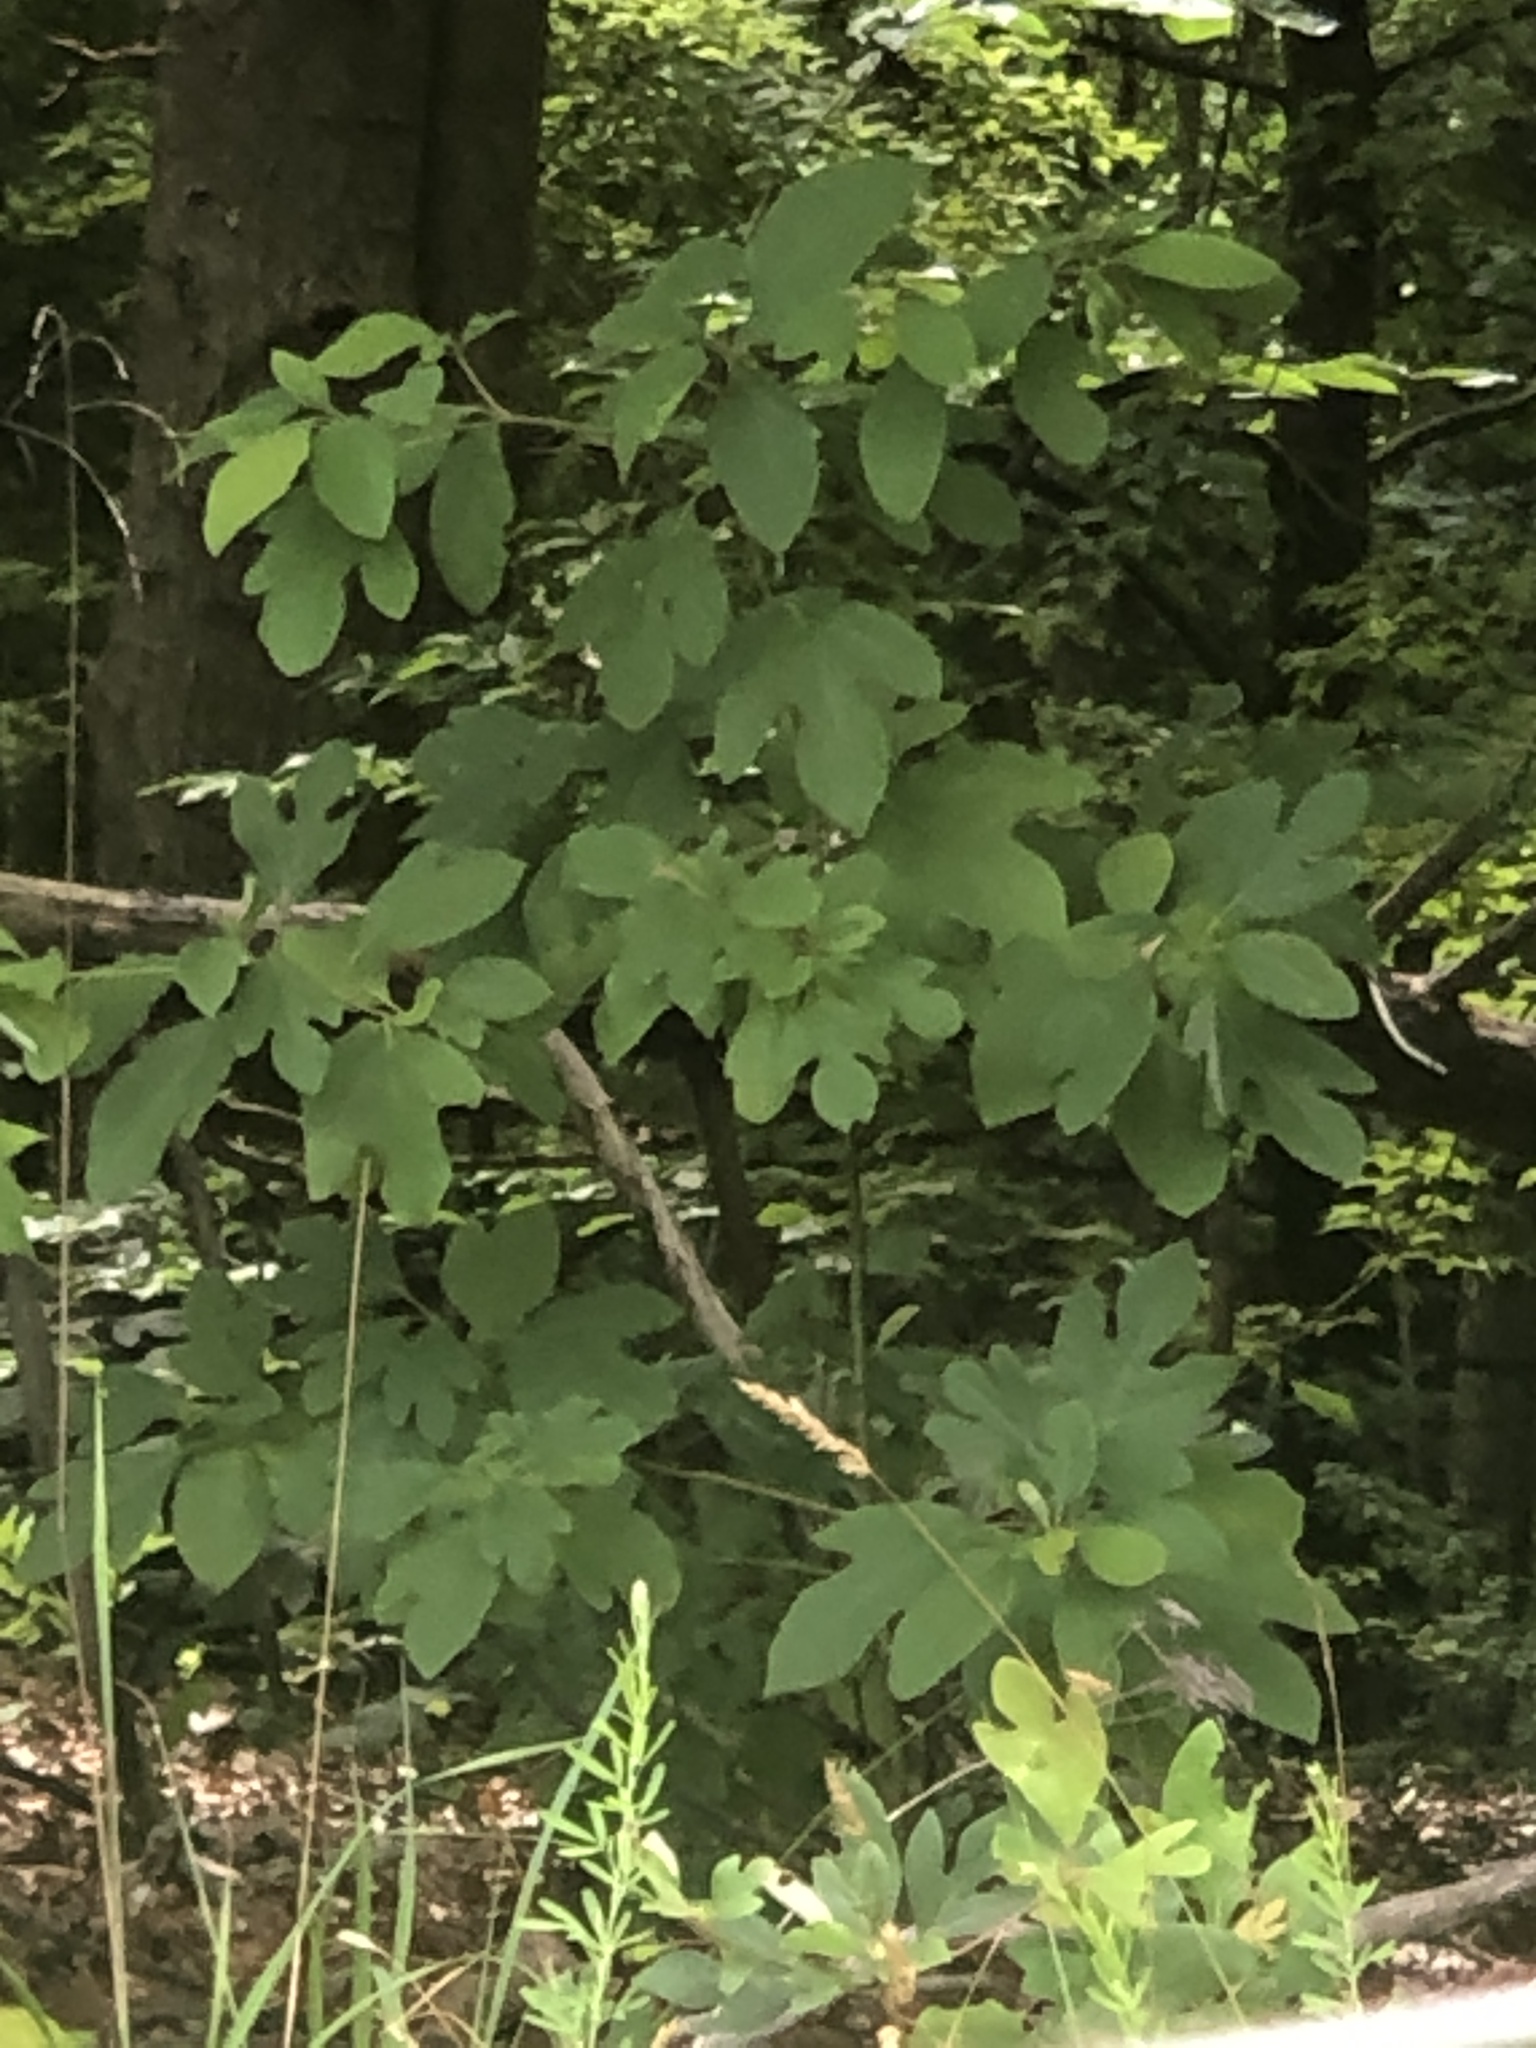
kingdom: Plantae
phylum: Tracheophyta
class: Magnoliopsida
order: Laurales
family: Lauraceae
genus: Sassafras
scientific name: Sassafras albidum
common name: Sassafras
